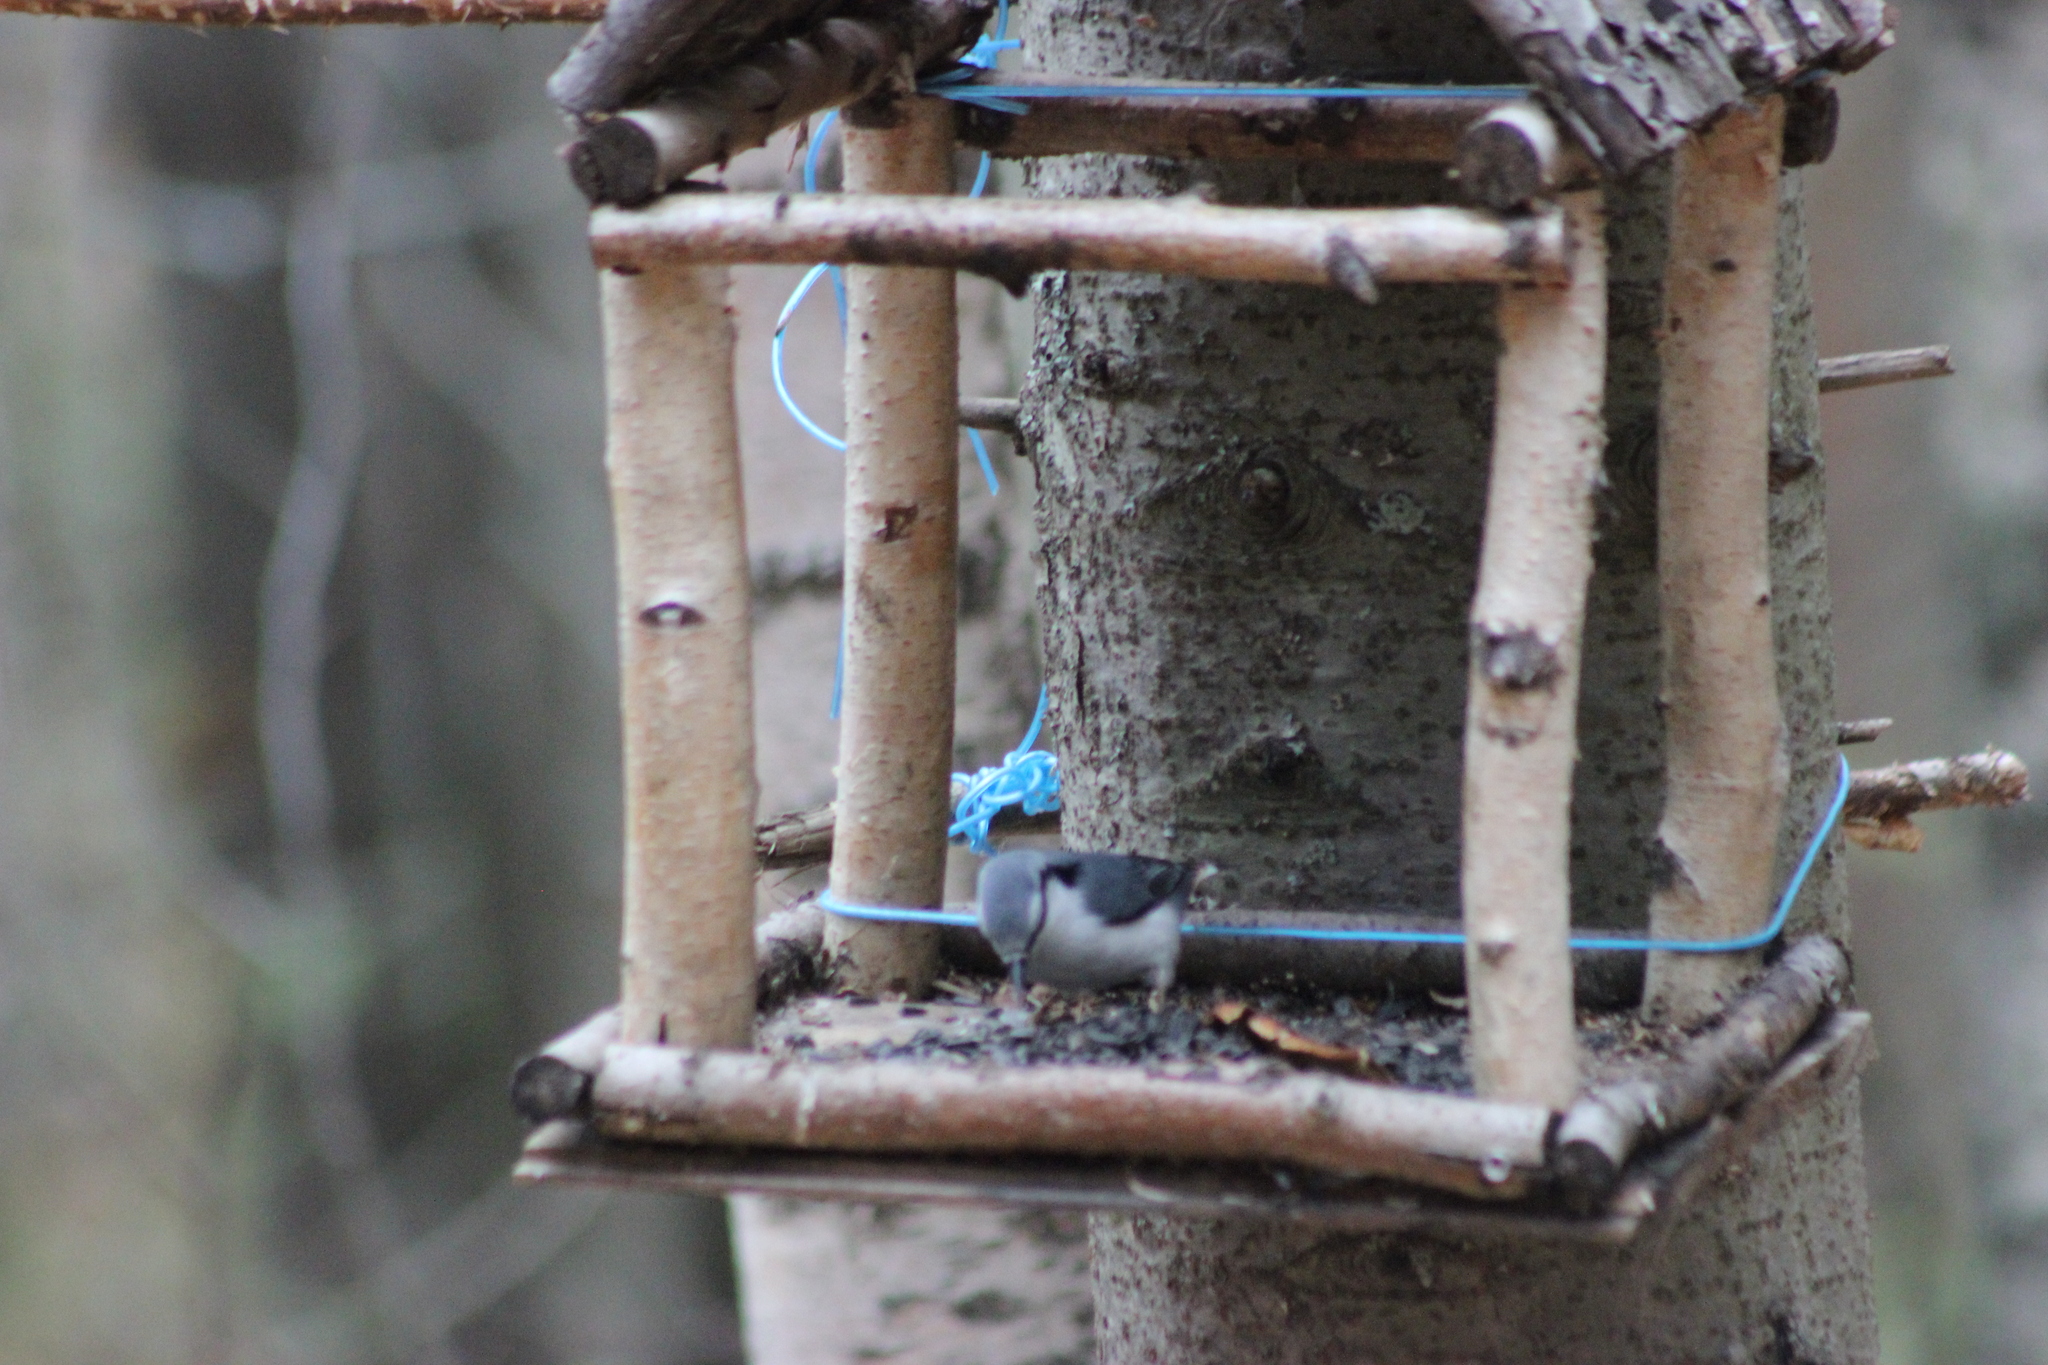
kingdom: Animalia
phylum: Chordata
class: Aves
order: Passeriformes
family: Sittidae
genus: Sitta
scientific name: Sitta europaea
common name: Eurasian nuthatch
